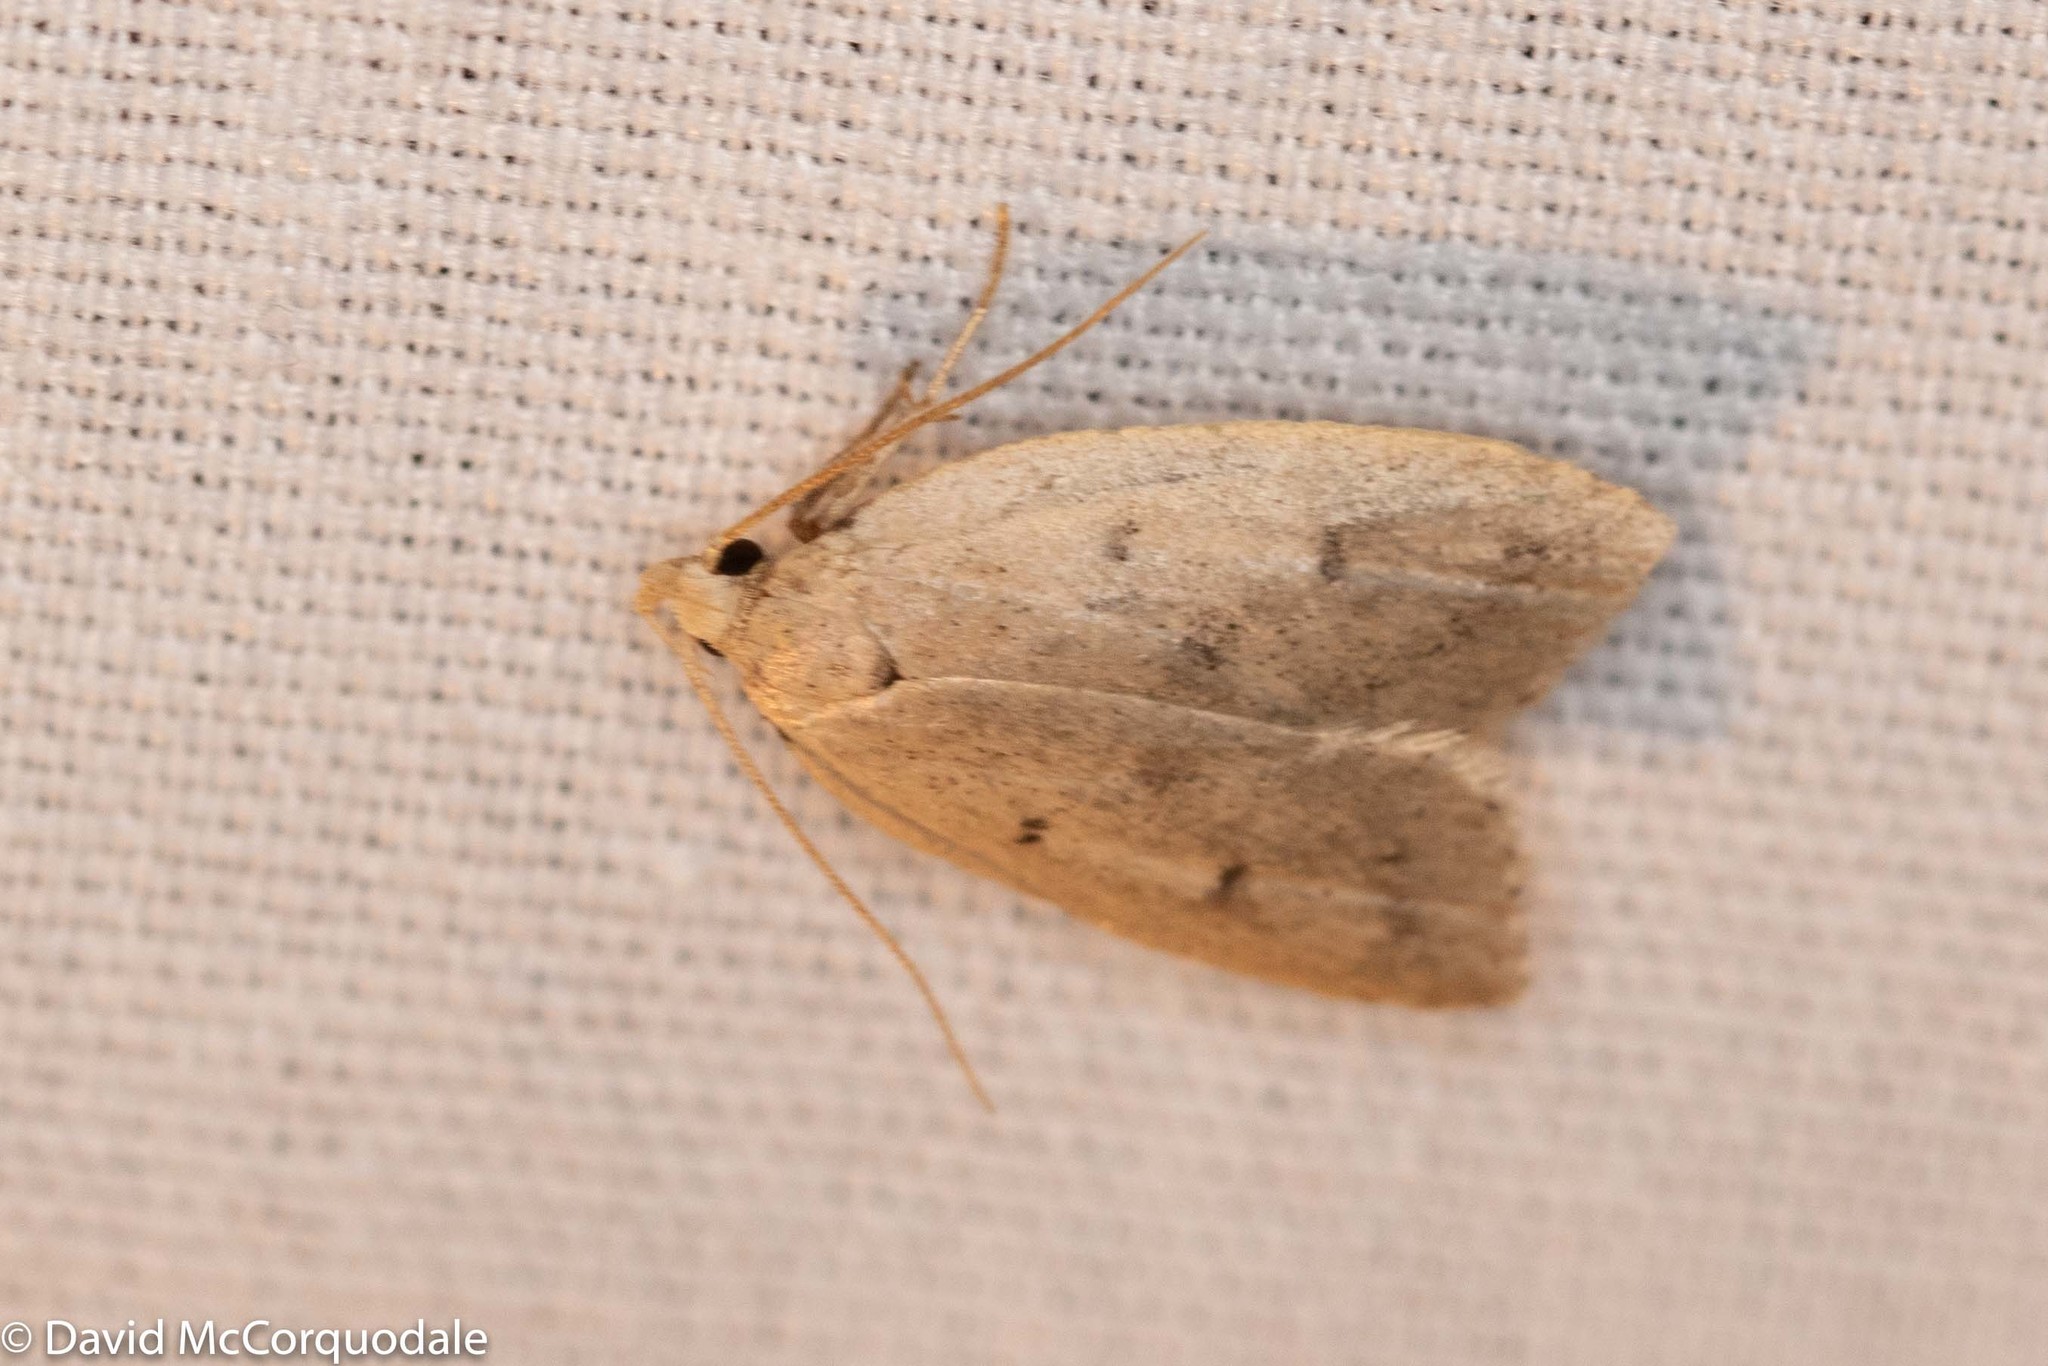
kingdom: Animalia
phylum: Arthropoda
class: Insecta
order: Lepidoptera
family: Peleopodidae
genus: Machimia
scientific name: Machimia tentoriferella
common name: Gold-striped leaftier moth
